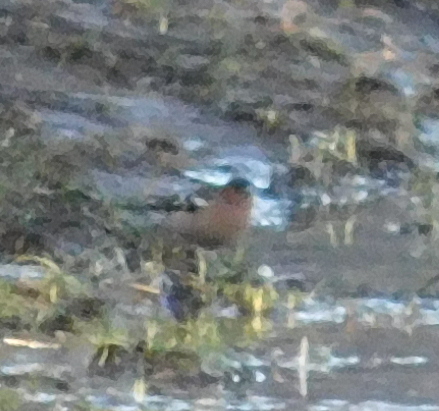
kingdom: Animalia
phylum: Chordata
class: Aves
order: Passeriformes
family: Fringillidae
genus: Fringilla
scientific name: Fringilla coelebs
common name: Common chaffinch
